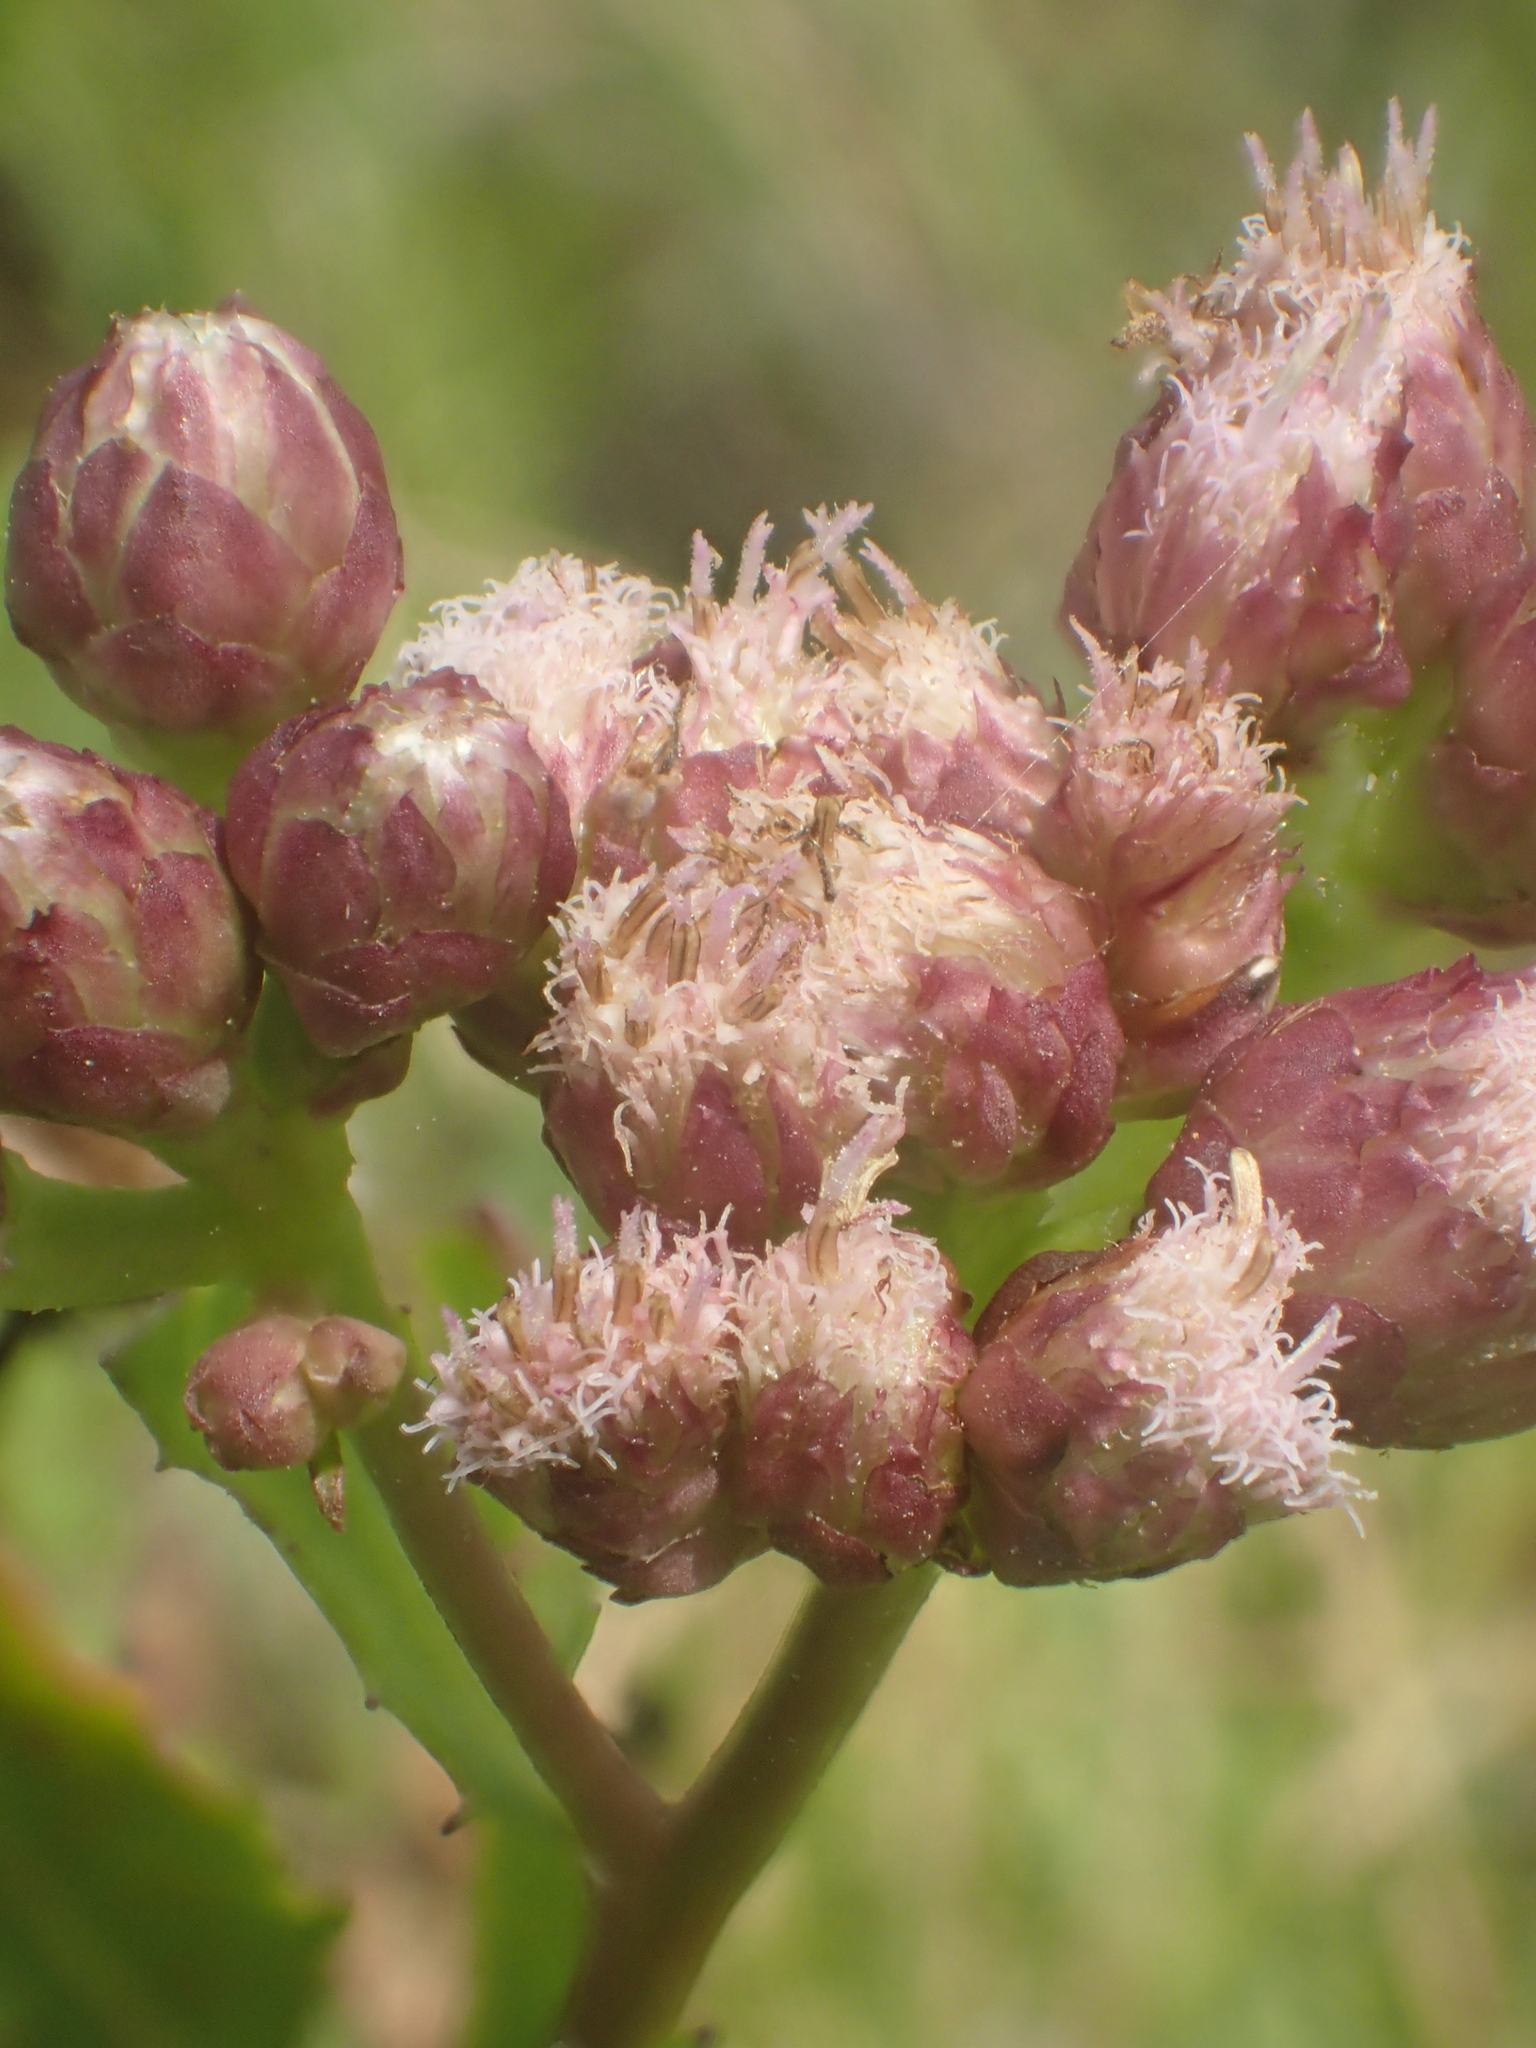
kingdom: Plantae
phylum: Tracheophyta
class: Magnoliopsida
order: Asterales
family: Asteraceae
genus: Pluchea
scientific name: Pluchea pteropoda
